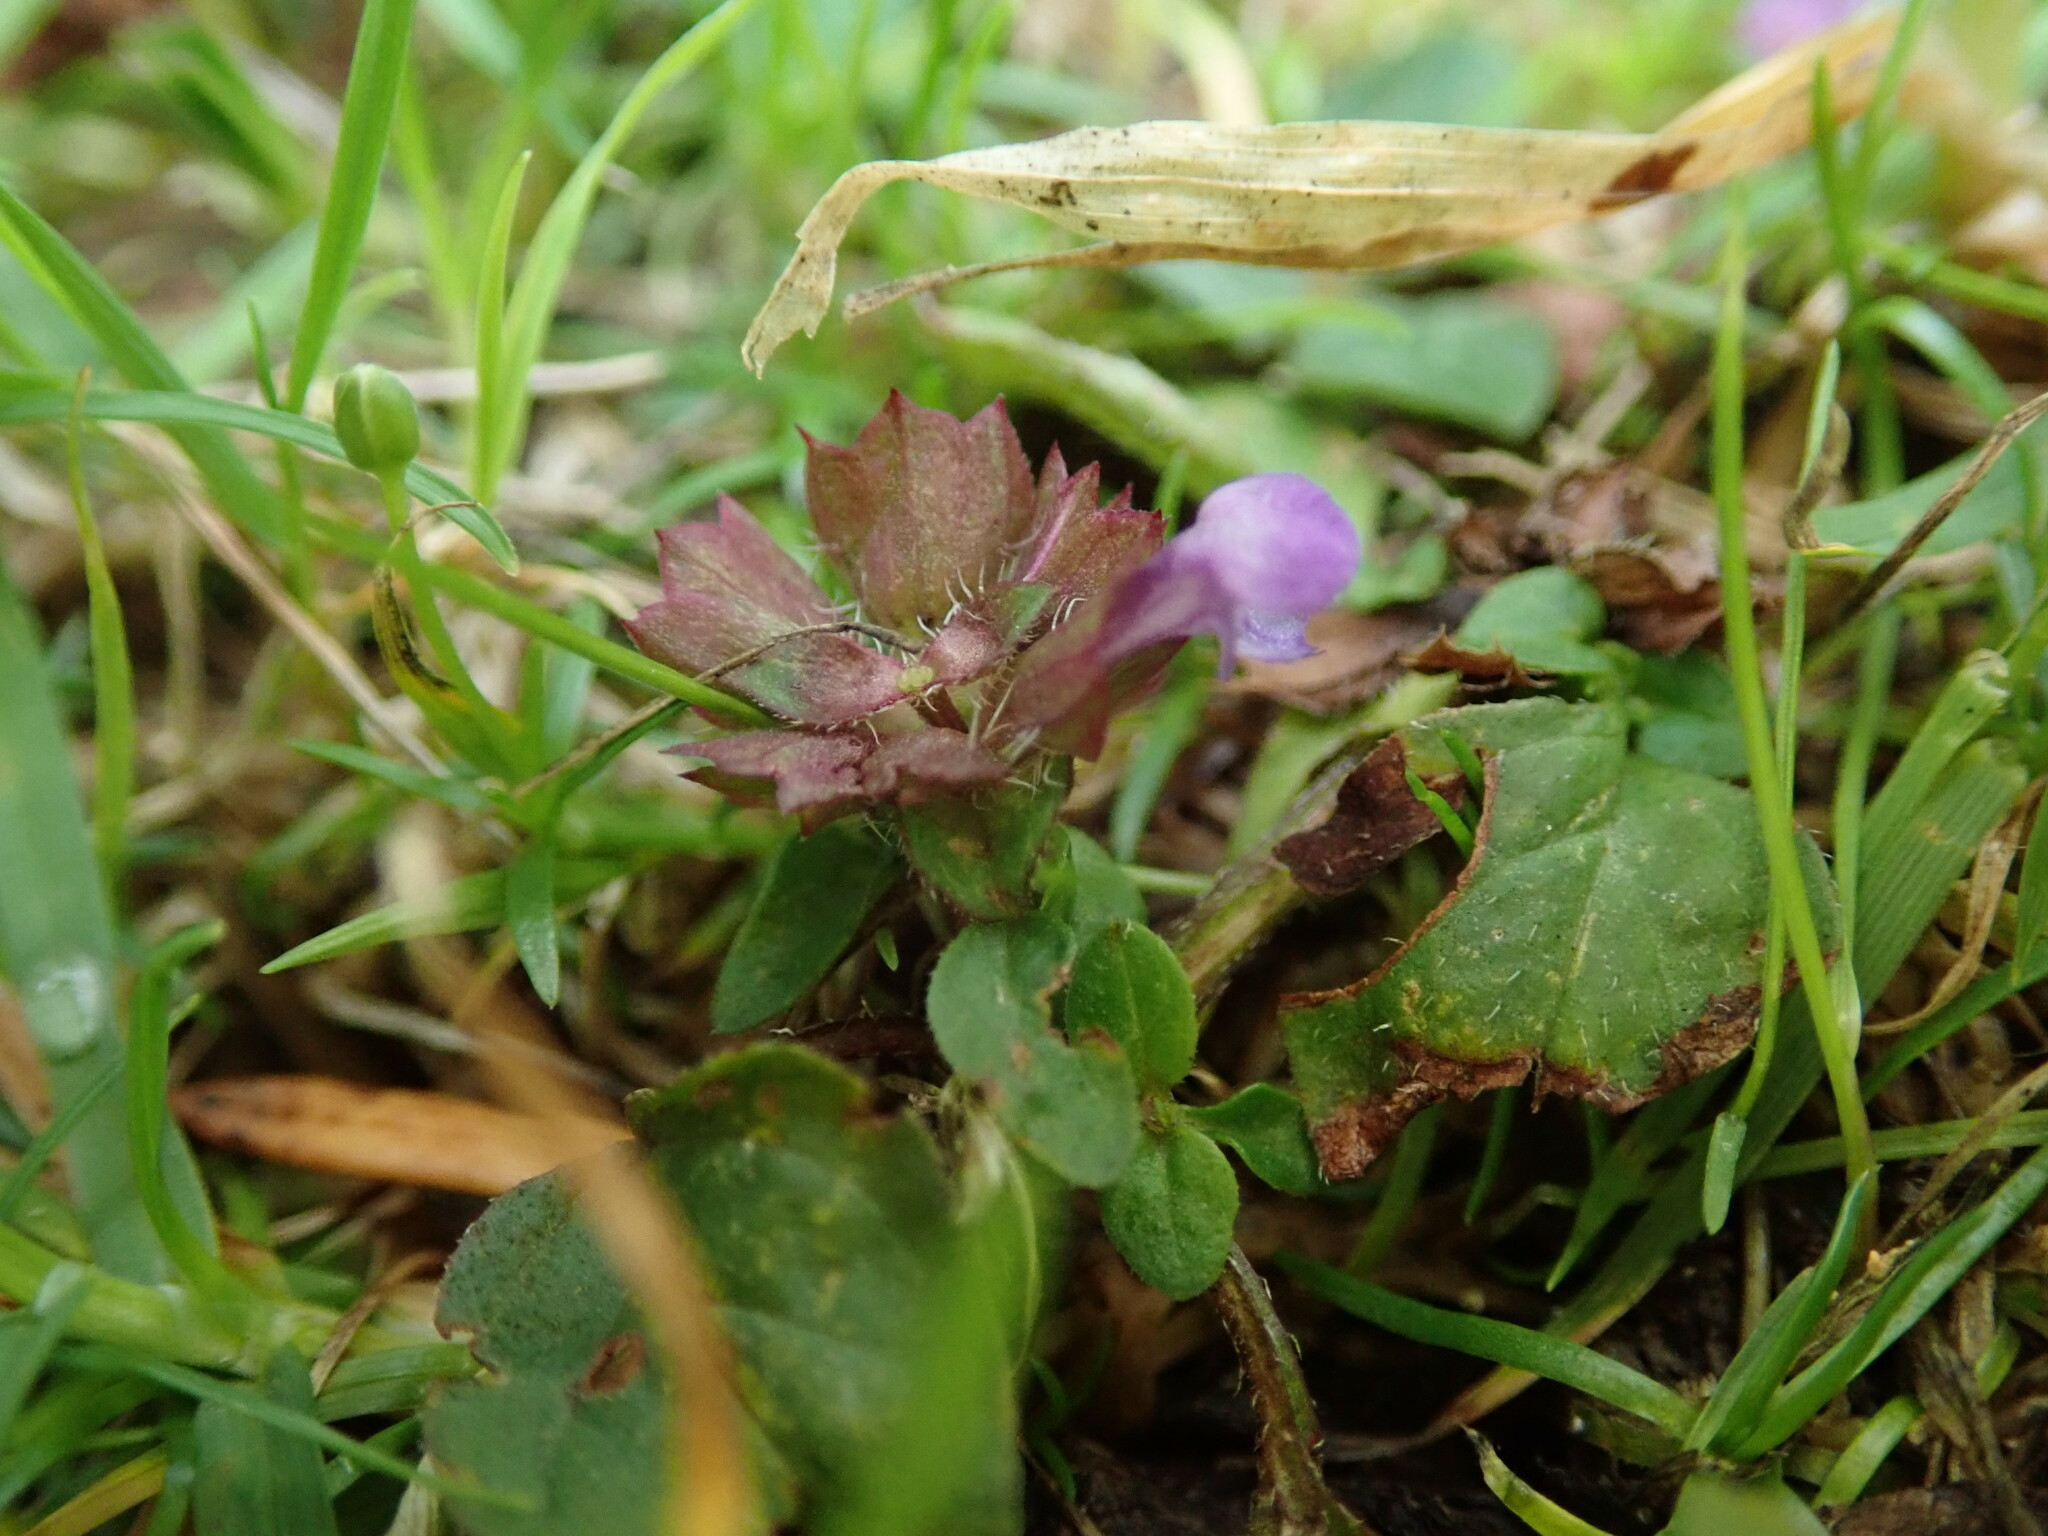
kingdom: Plantae
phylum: Tracheophyta
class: Magnoliopsida
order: Lamiales
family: Lamiaceae
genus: Prunella
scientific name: Prunella vulgaris
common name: Heal-all
